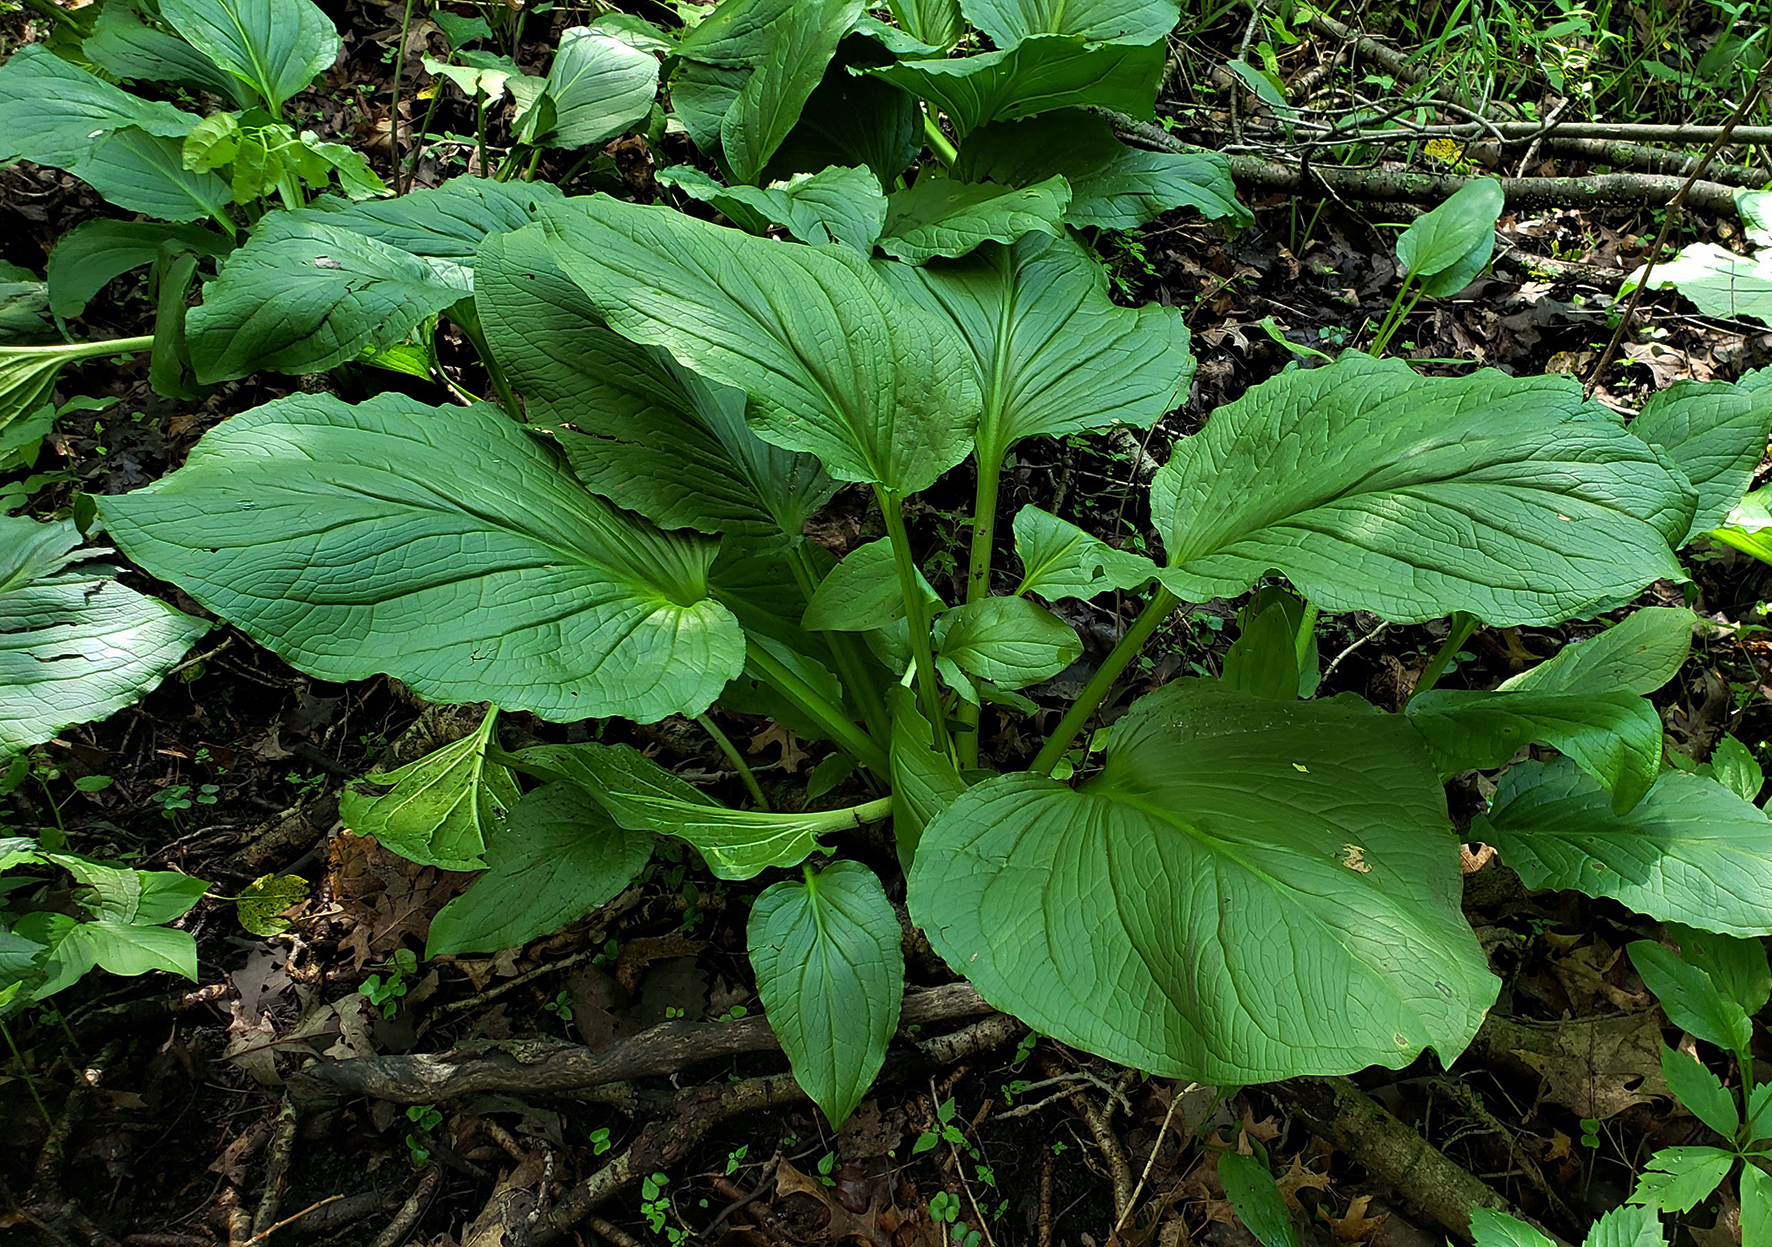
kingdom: Plantae
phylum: Tracheophyta
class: Liliopsida
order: Alismatales
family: Araceae
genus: Symplocarpus
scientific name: Symplocarpus foetidus
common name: Eastern skunk cabbage
